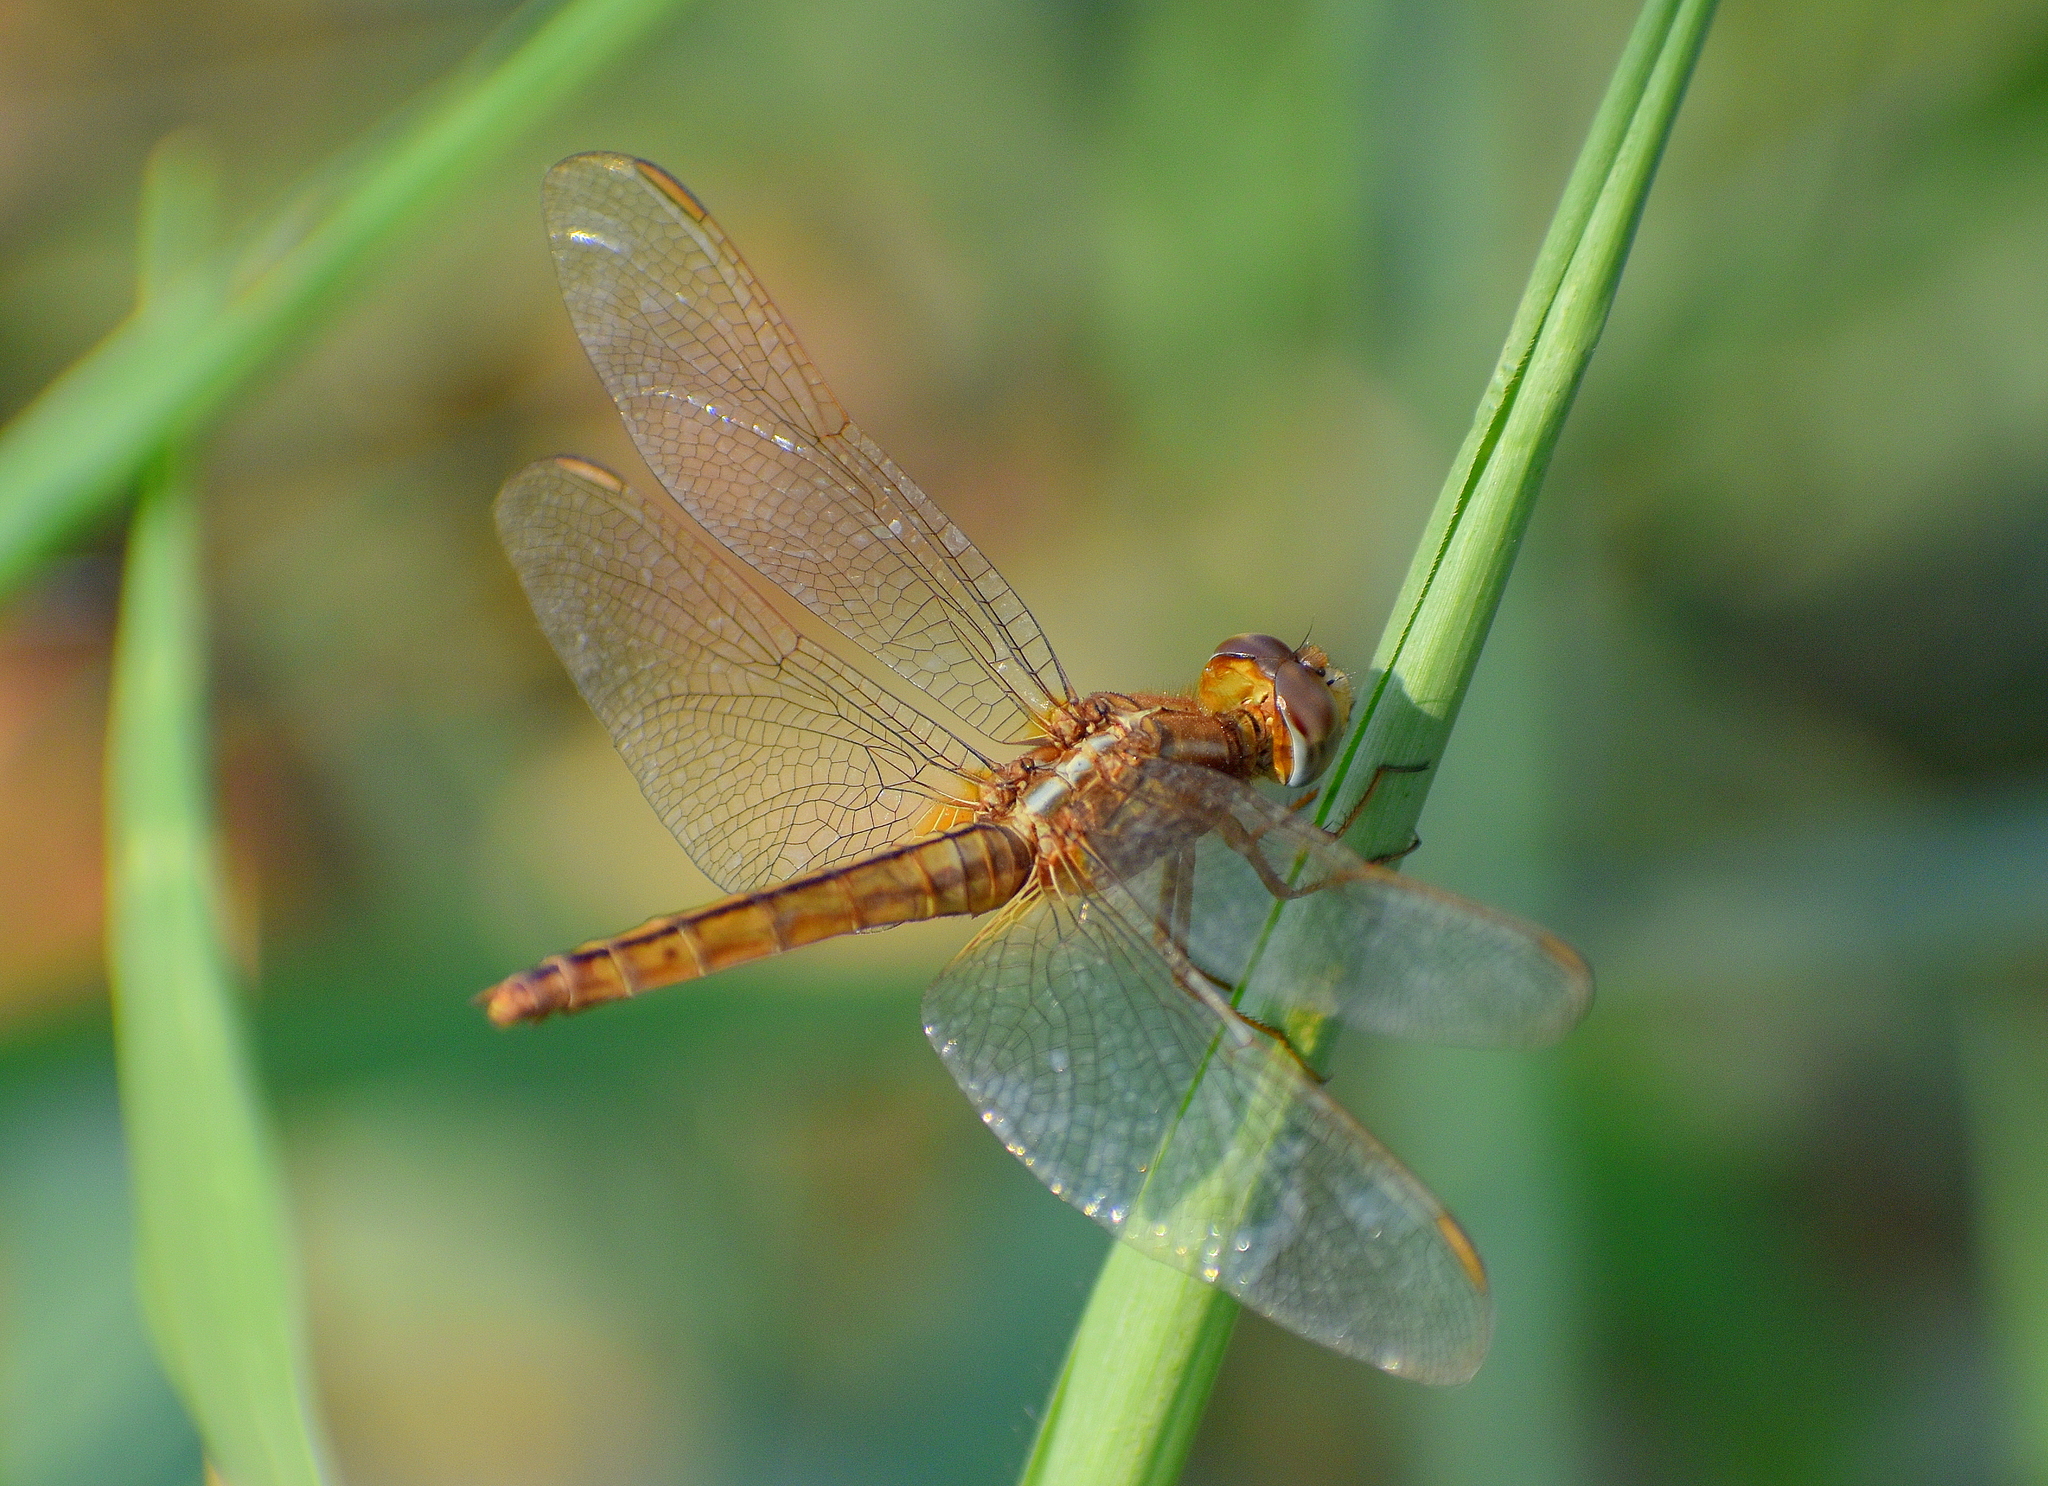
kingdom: Animalia
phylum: Arthropoda
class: Insecta
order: Odonata
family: Libellulidae
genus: Crocothemis
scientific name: Crocothemis servilia
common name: Scarlet skimmer
